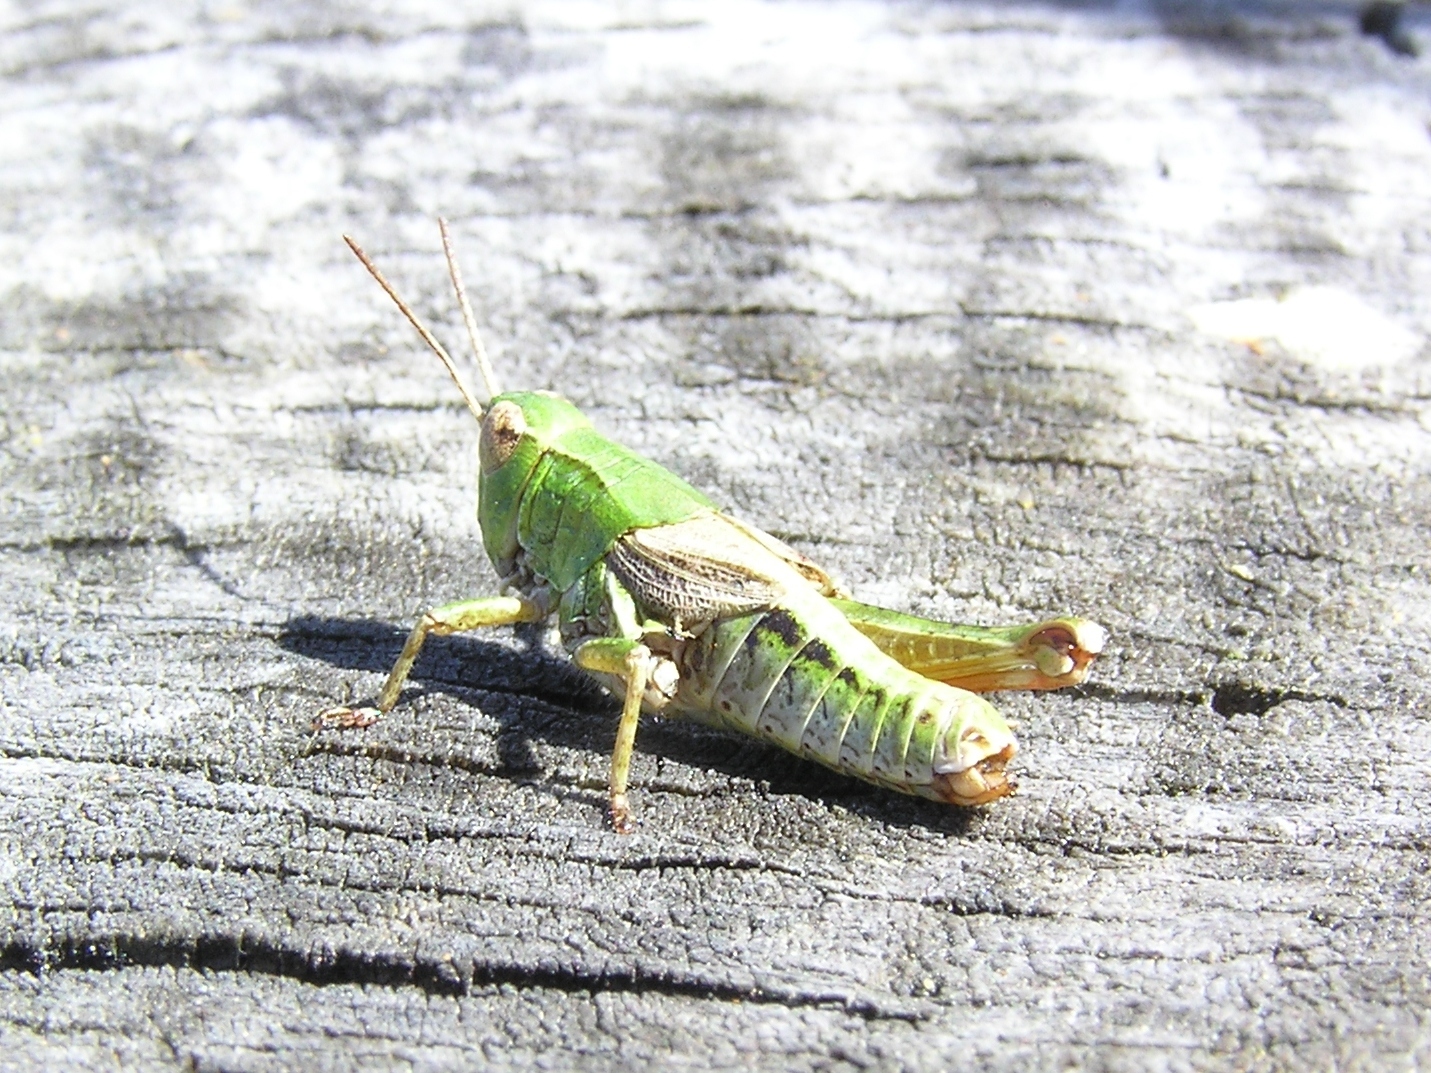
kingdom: Animalia
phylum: Arthropoda
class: Insecta
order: Orthoptera
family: Acrididae
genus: Phaulacridium
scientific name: Phaulacridium marginale
